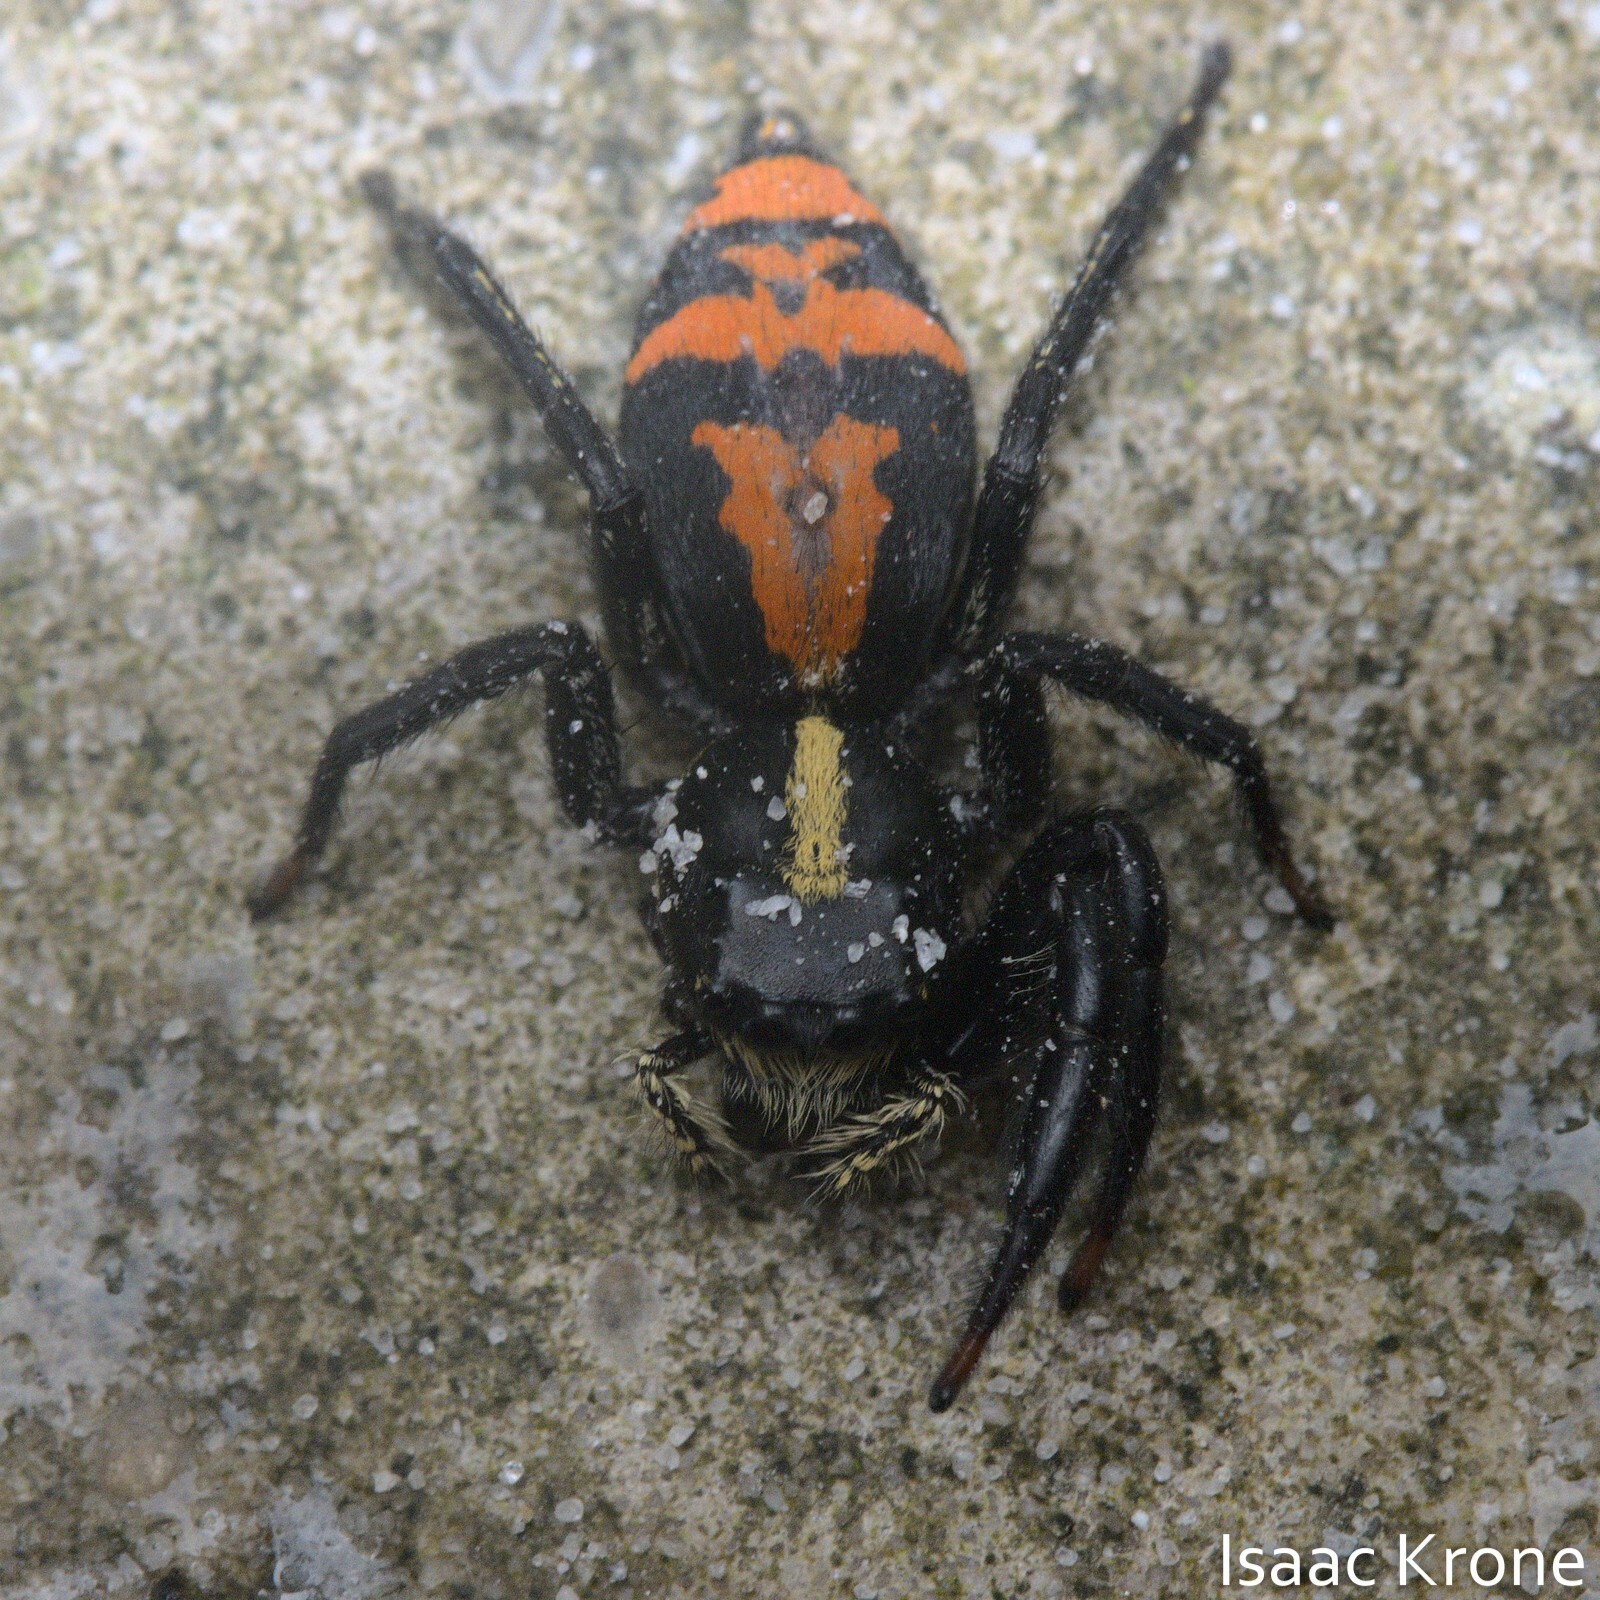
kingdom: Animalia
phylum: Arthropoda
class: Arachnida
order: Araneae
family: Salticidae
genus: Breda
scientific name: Breda lubomirskii
